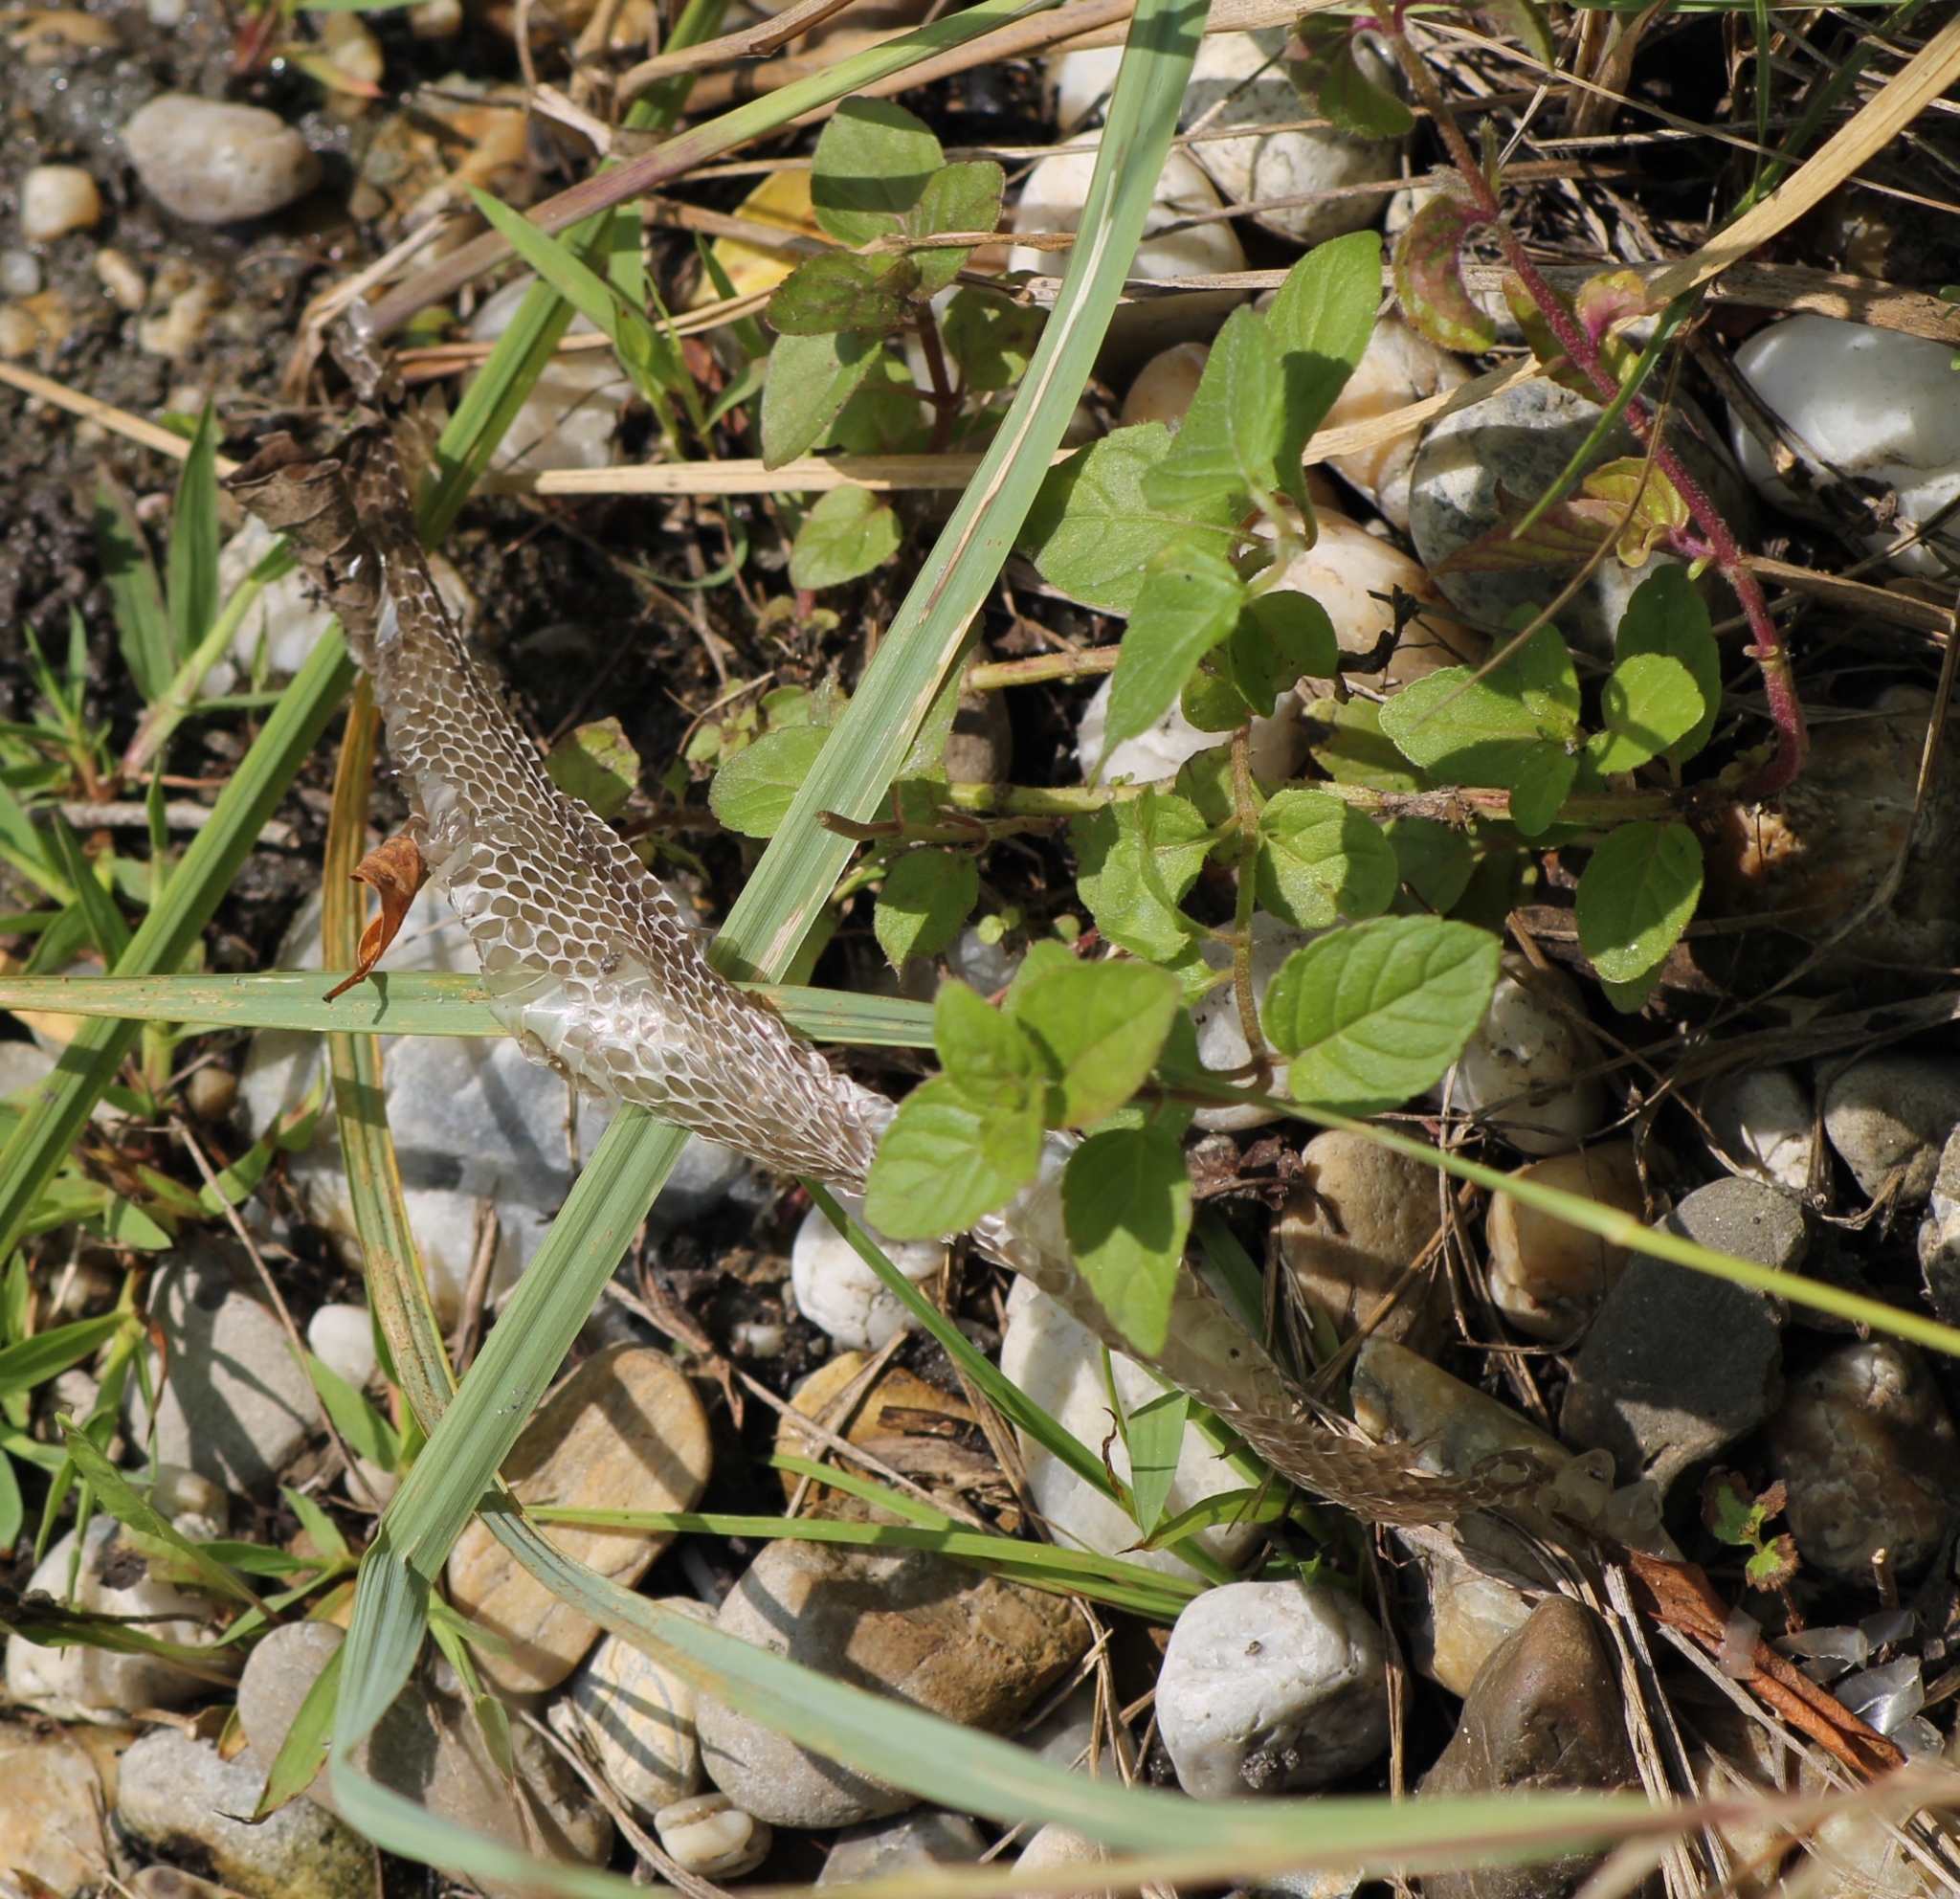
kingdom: Animalia
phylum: Chordata
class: Squamata
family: Colubridae
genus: Natrix
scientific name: Natrix natrix
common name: Grass snake
